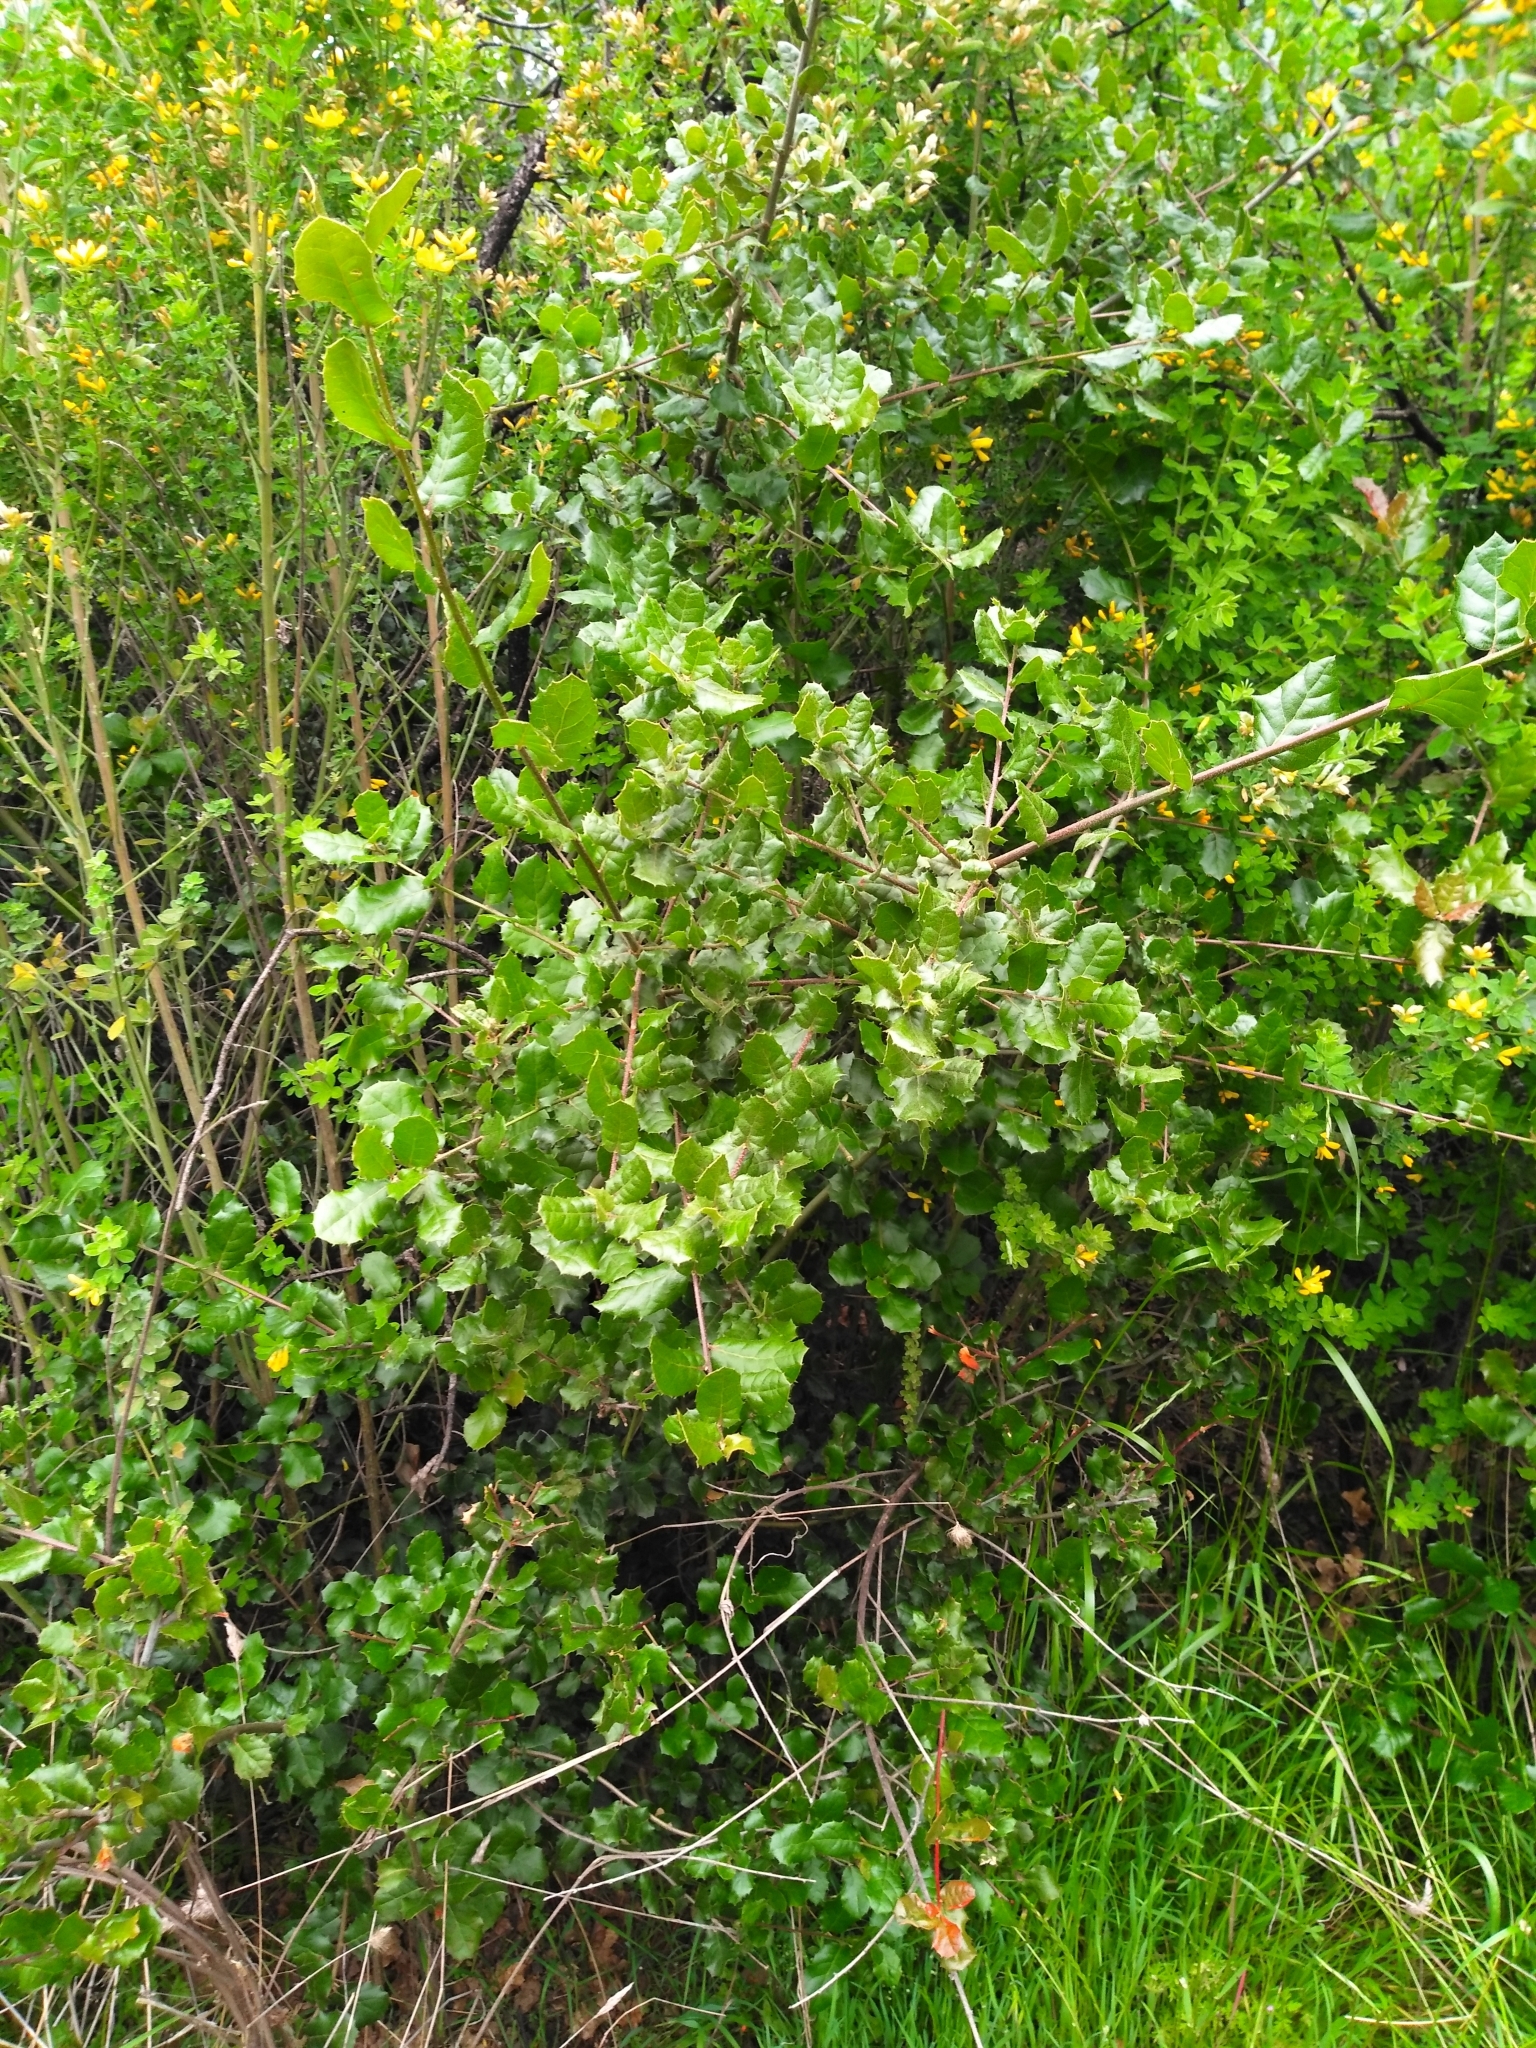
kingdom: Plantae
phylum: Tracheophyta
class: Magnoliopsida
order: Fagales
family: Fagaceae
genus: Quercus
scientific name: Quercus agrifolia
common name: California live oak
